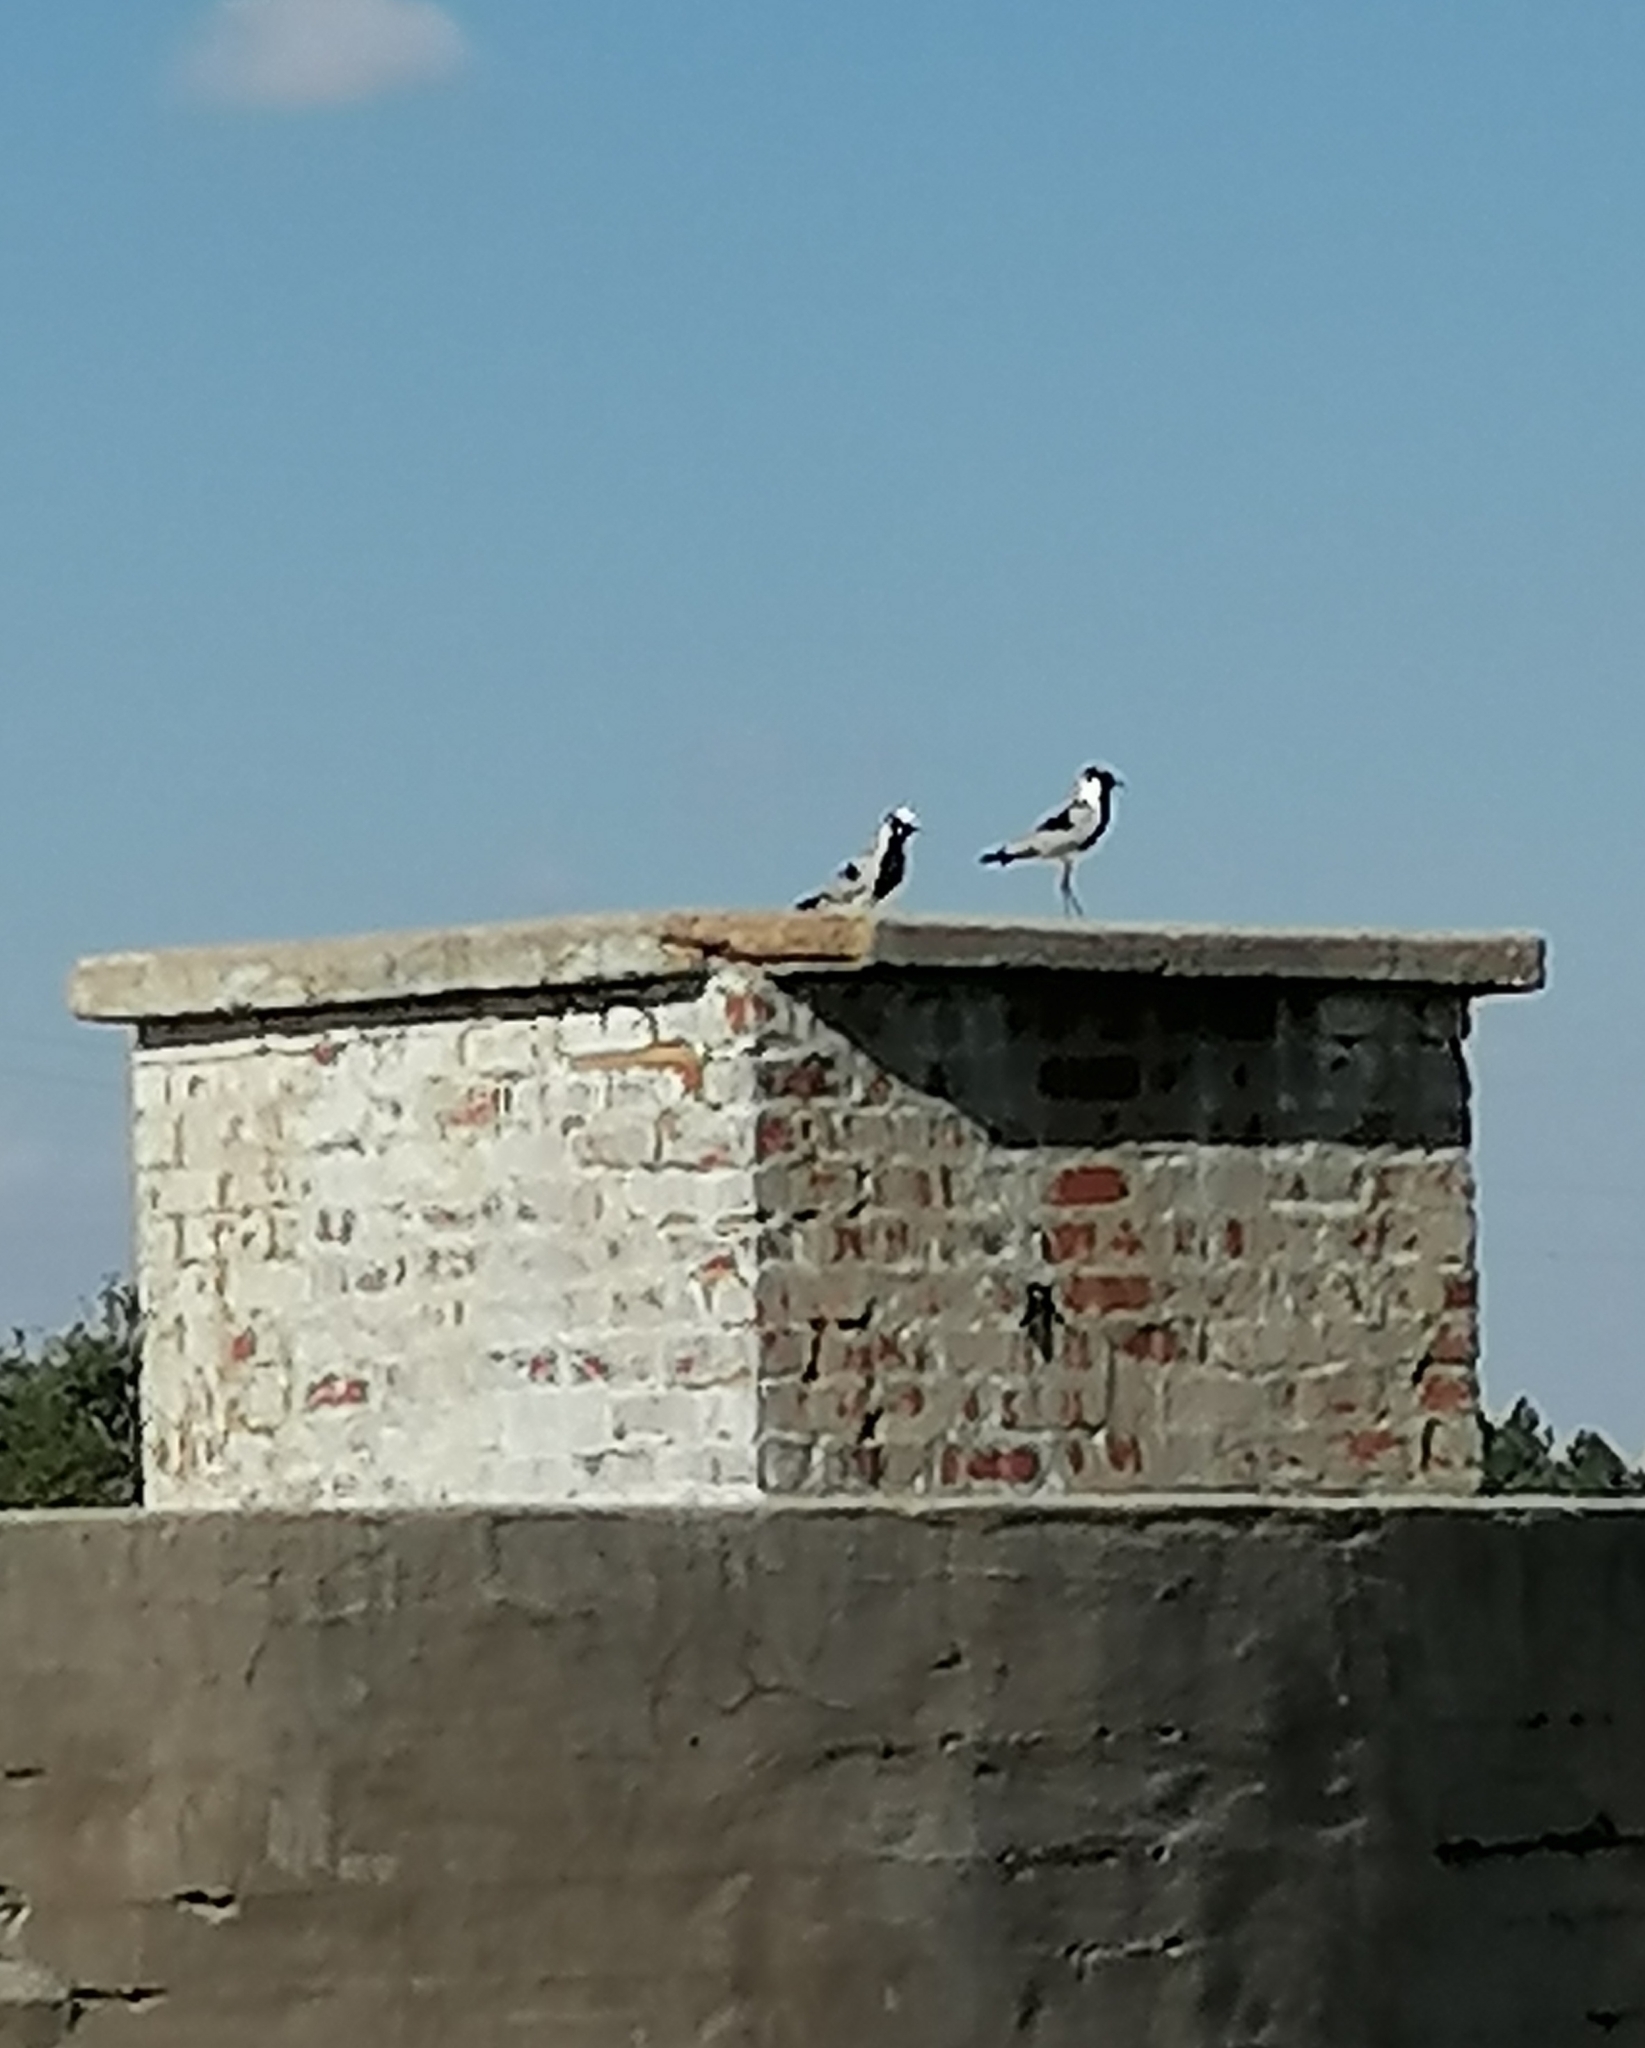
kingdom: Animalia
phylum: Chordata
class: Aves
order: Charadriiformes
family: Charadriidae
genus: Vanellus
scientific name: Vanellus armatus
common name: Blacksmith lapwing
